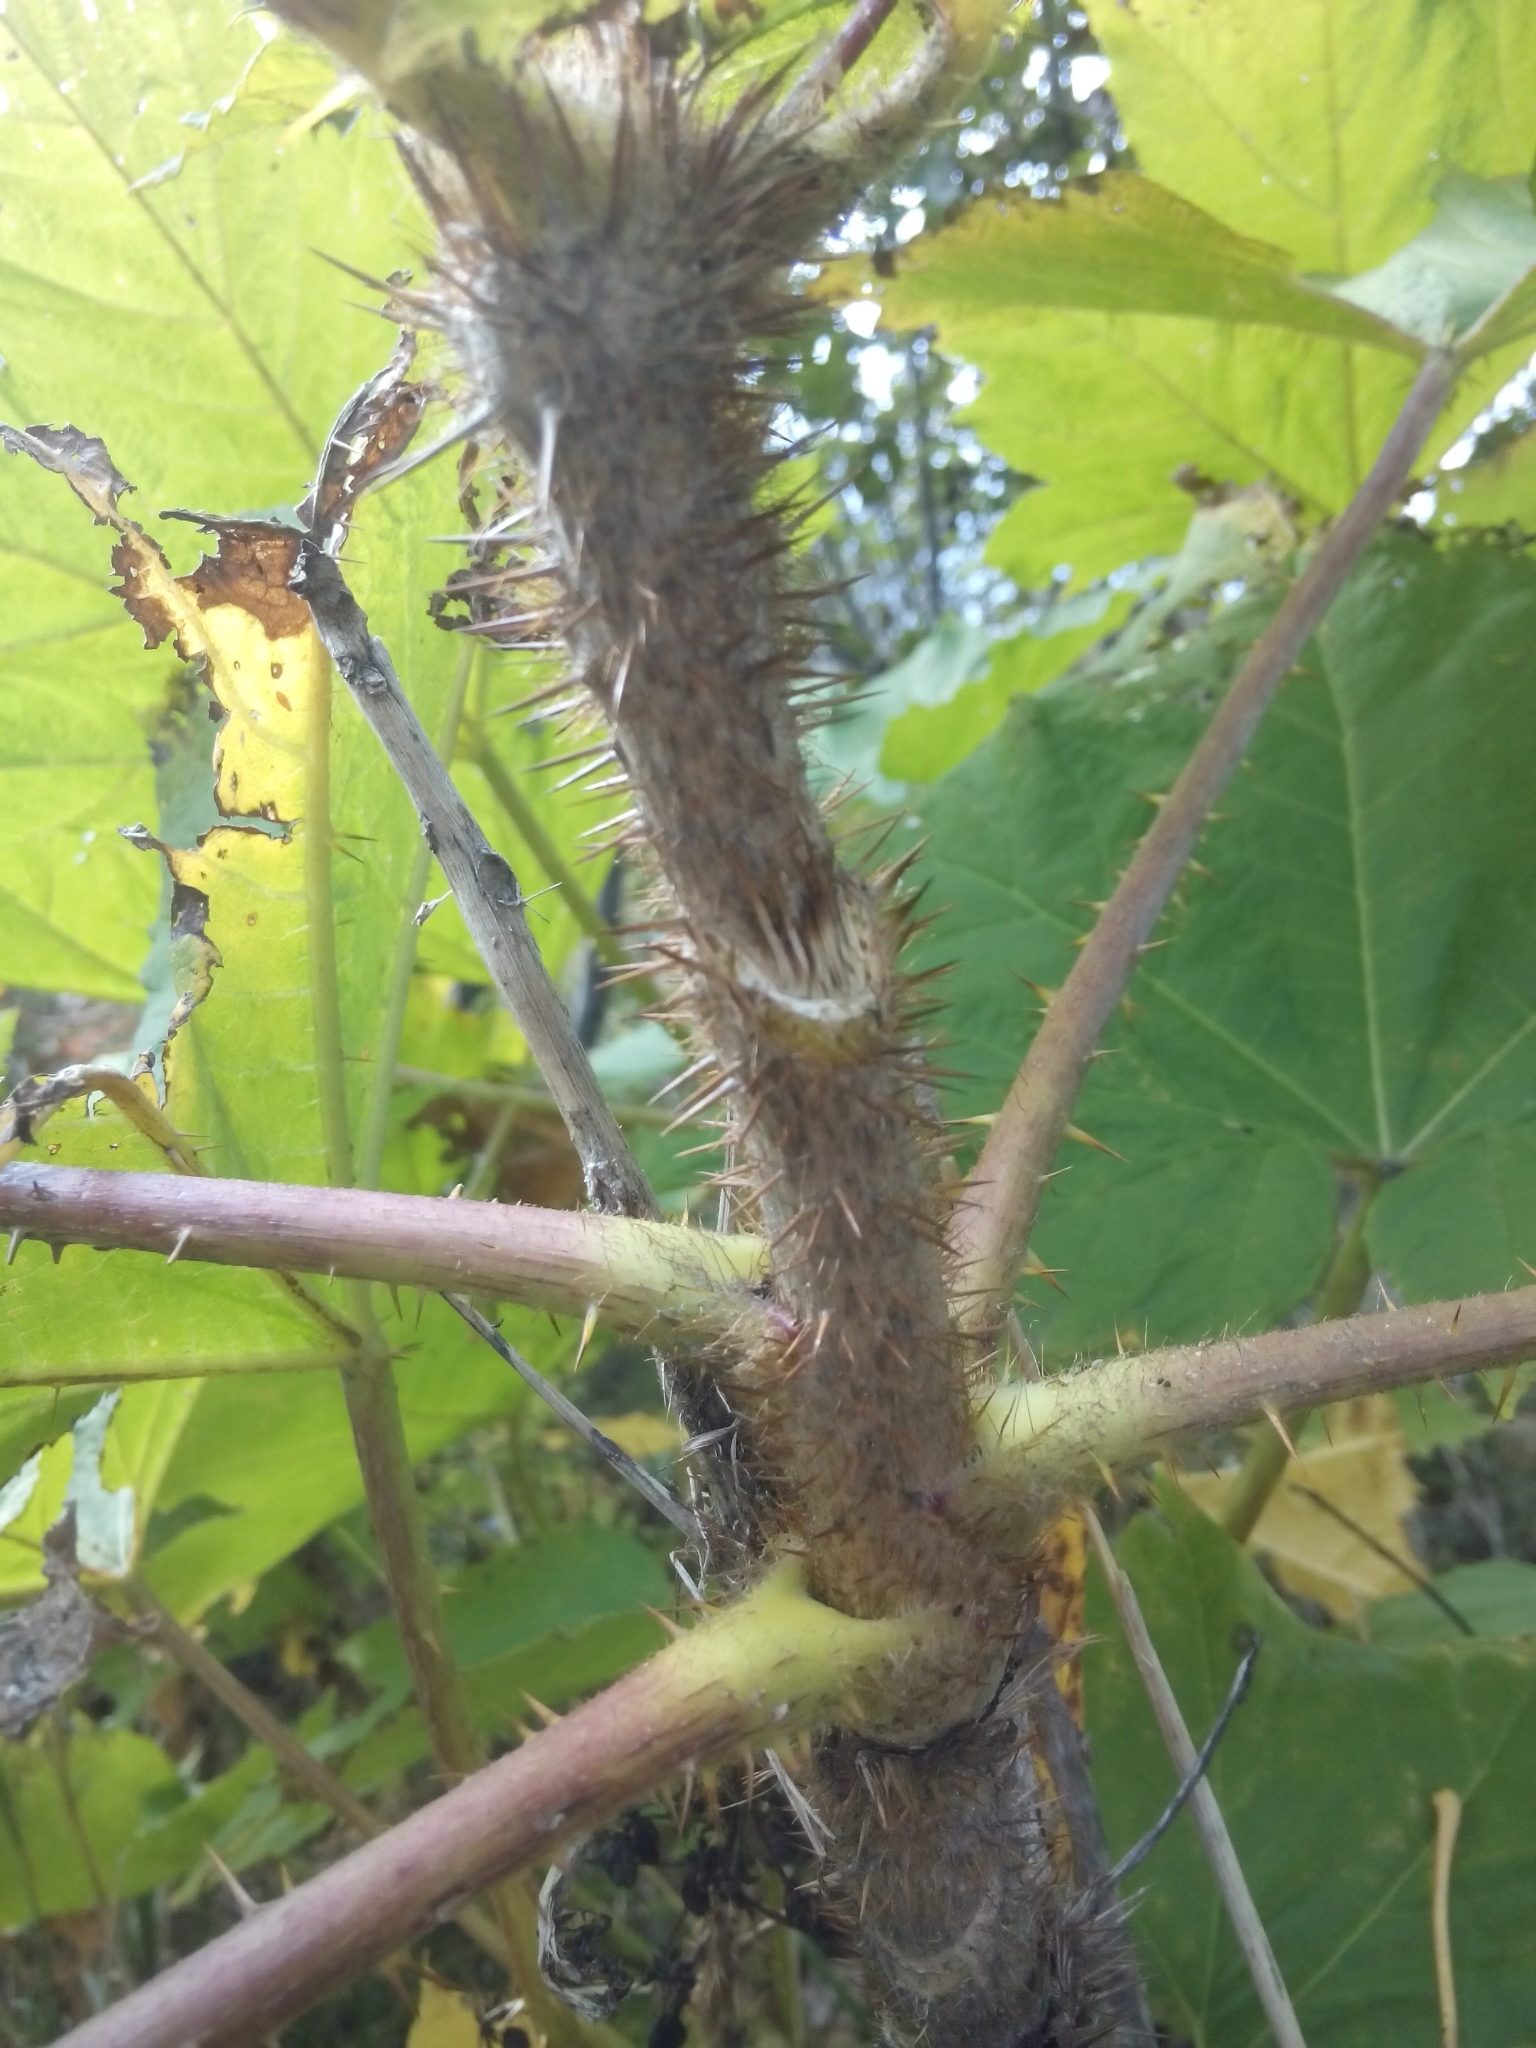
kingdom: Plantae
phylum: Tracheophyta
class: Magnoliopsida
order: Apiales
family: Araliaceae
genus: Oplopanax
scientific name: Oplopanax horridus
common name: Devil's walking-stick
